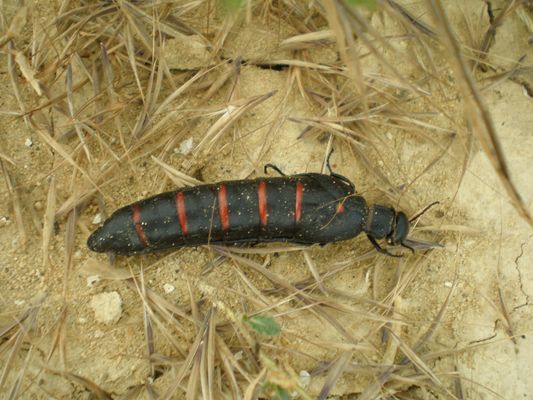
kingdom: Animalia
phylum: Arthropoda
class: Insecta
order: Coleoptera
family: Meloidae
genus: Berberomeloe
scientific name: Berberomeloe majalis
